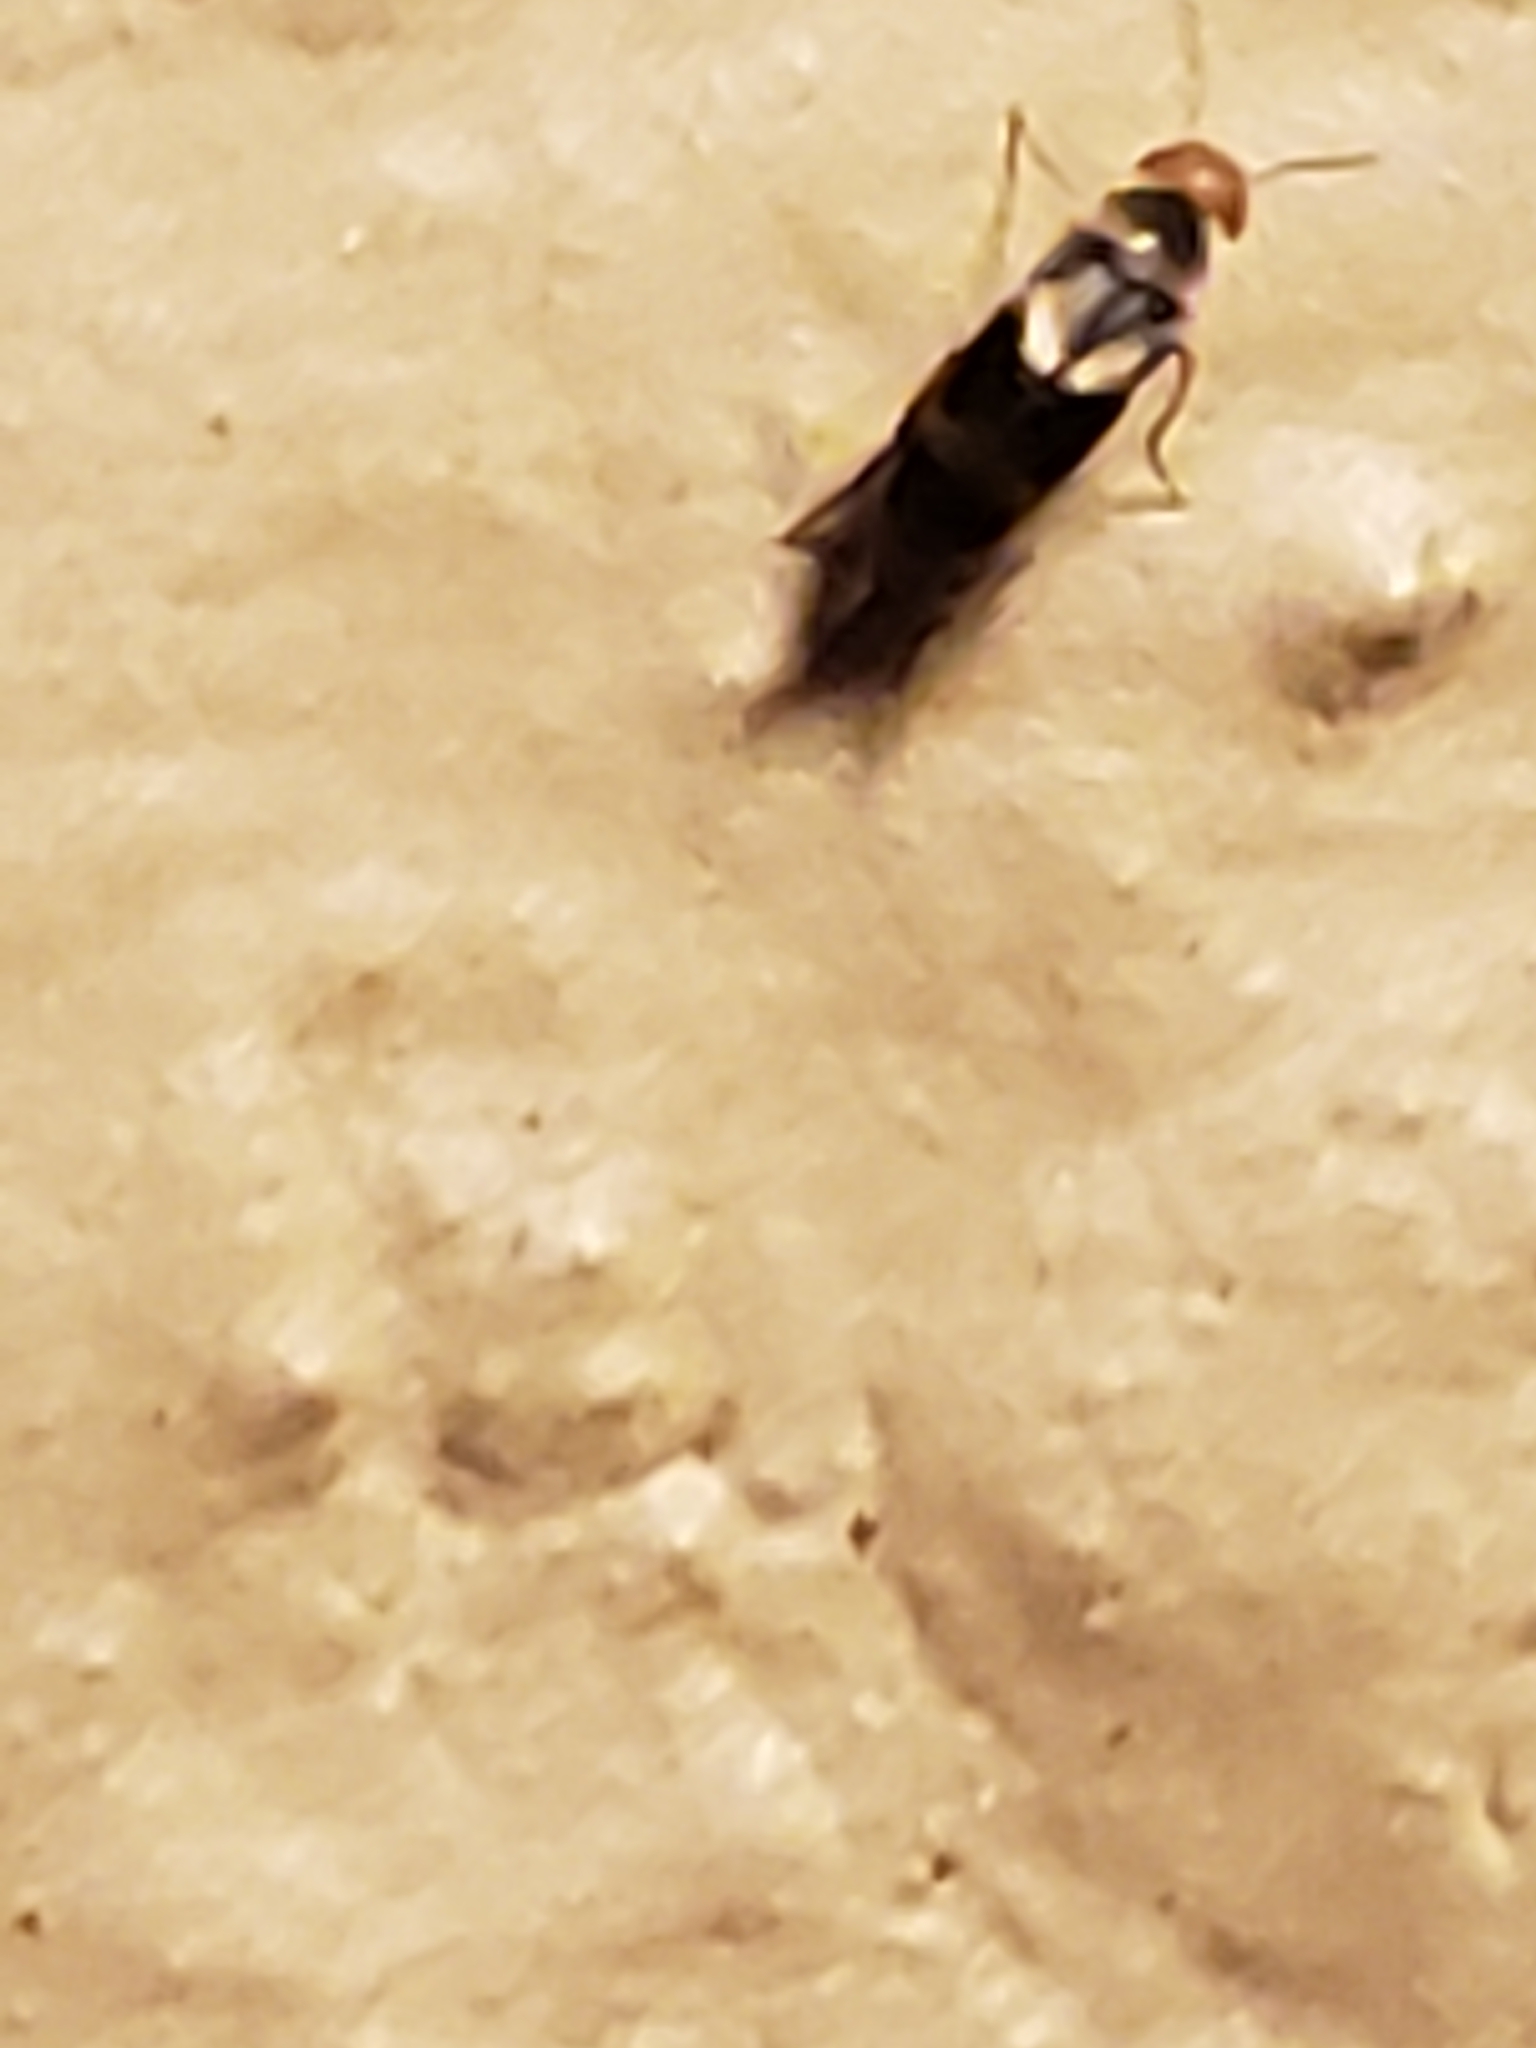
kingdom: Animalia
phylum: Arthropoda
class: Insecta
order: Coleoptera
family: Mordellidae
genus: Mordellistena
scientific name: Mordellistena trifasciata
